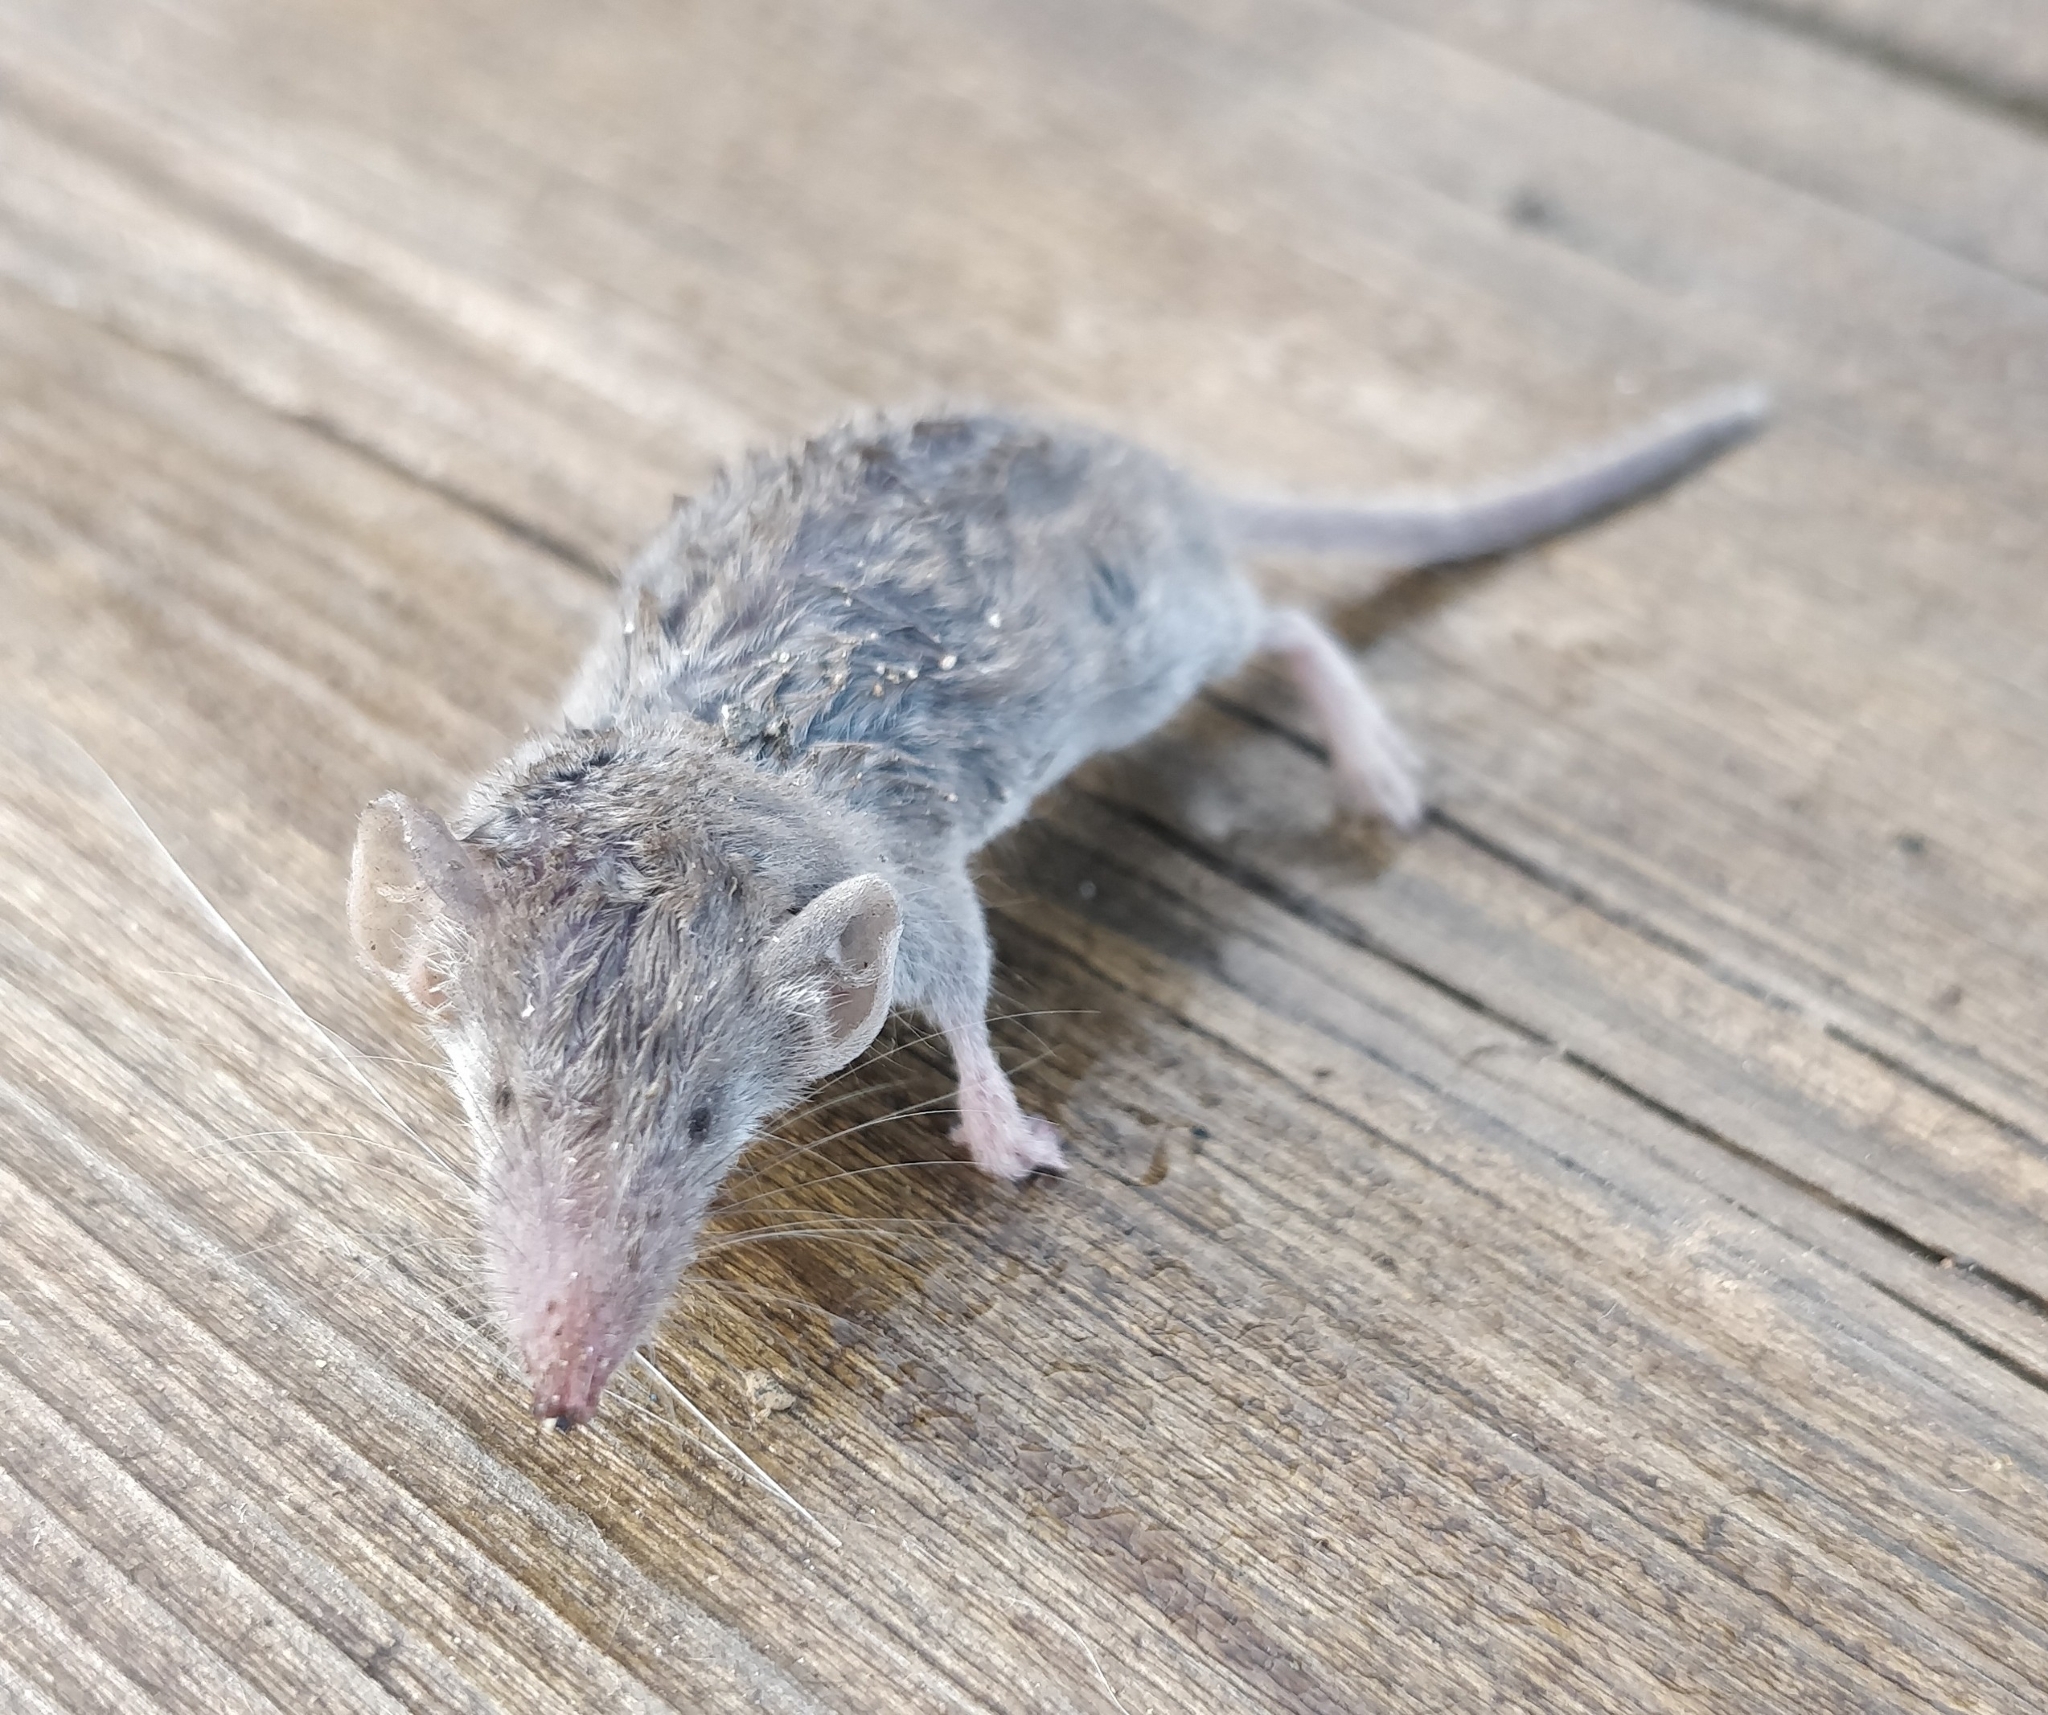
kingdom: Animalia
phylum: Chordata
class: Mammalia
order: Soricomorpha
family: Soricidae
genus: Suncus
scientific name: Suncus etruscus
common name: Etruscan shrew
